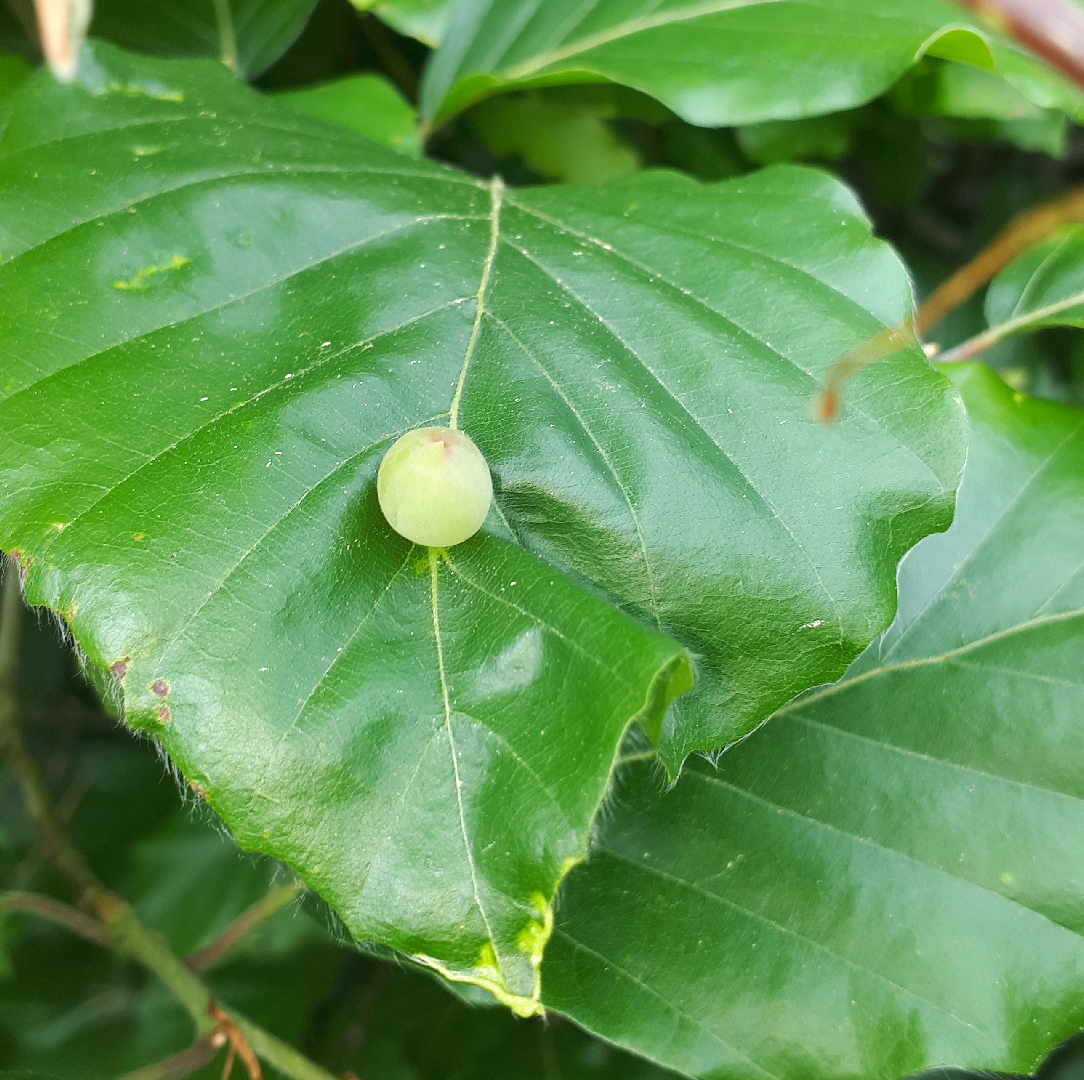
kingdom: Animalia
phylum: Arthropoda
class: Insecta
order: Diptera
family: Cecidomyiidae
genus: Mikiola
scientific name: Mikiola fagi
